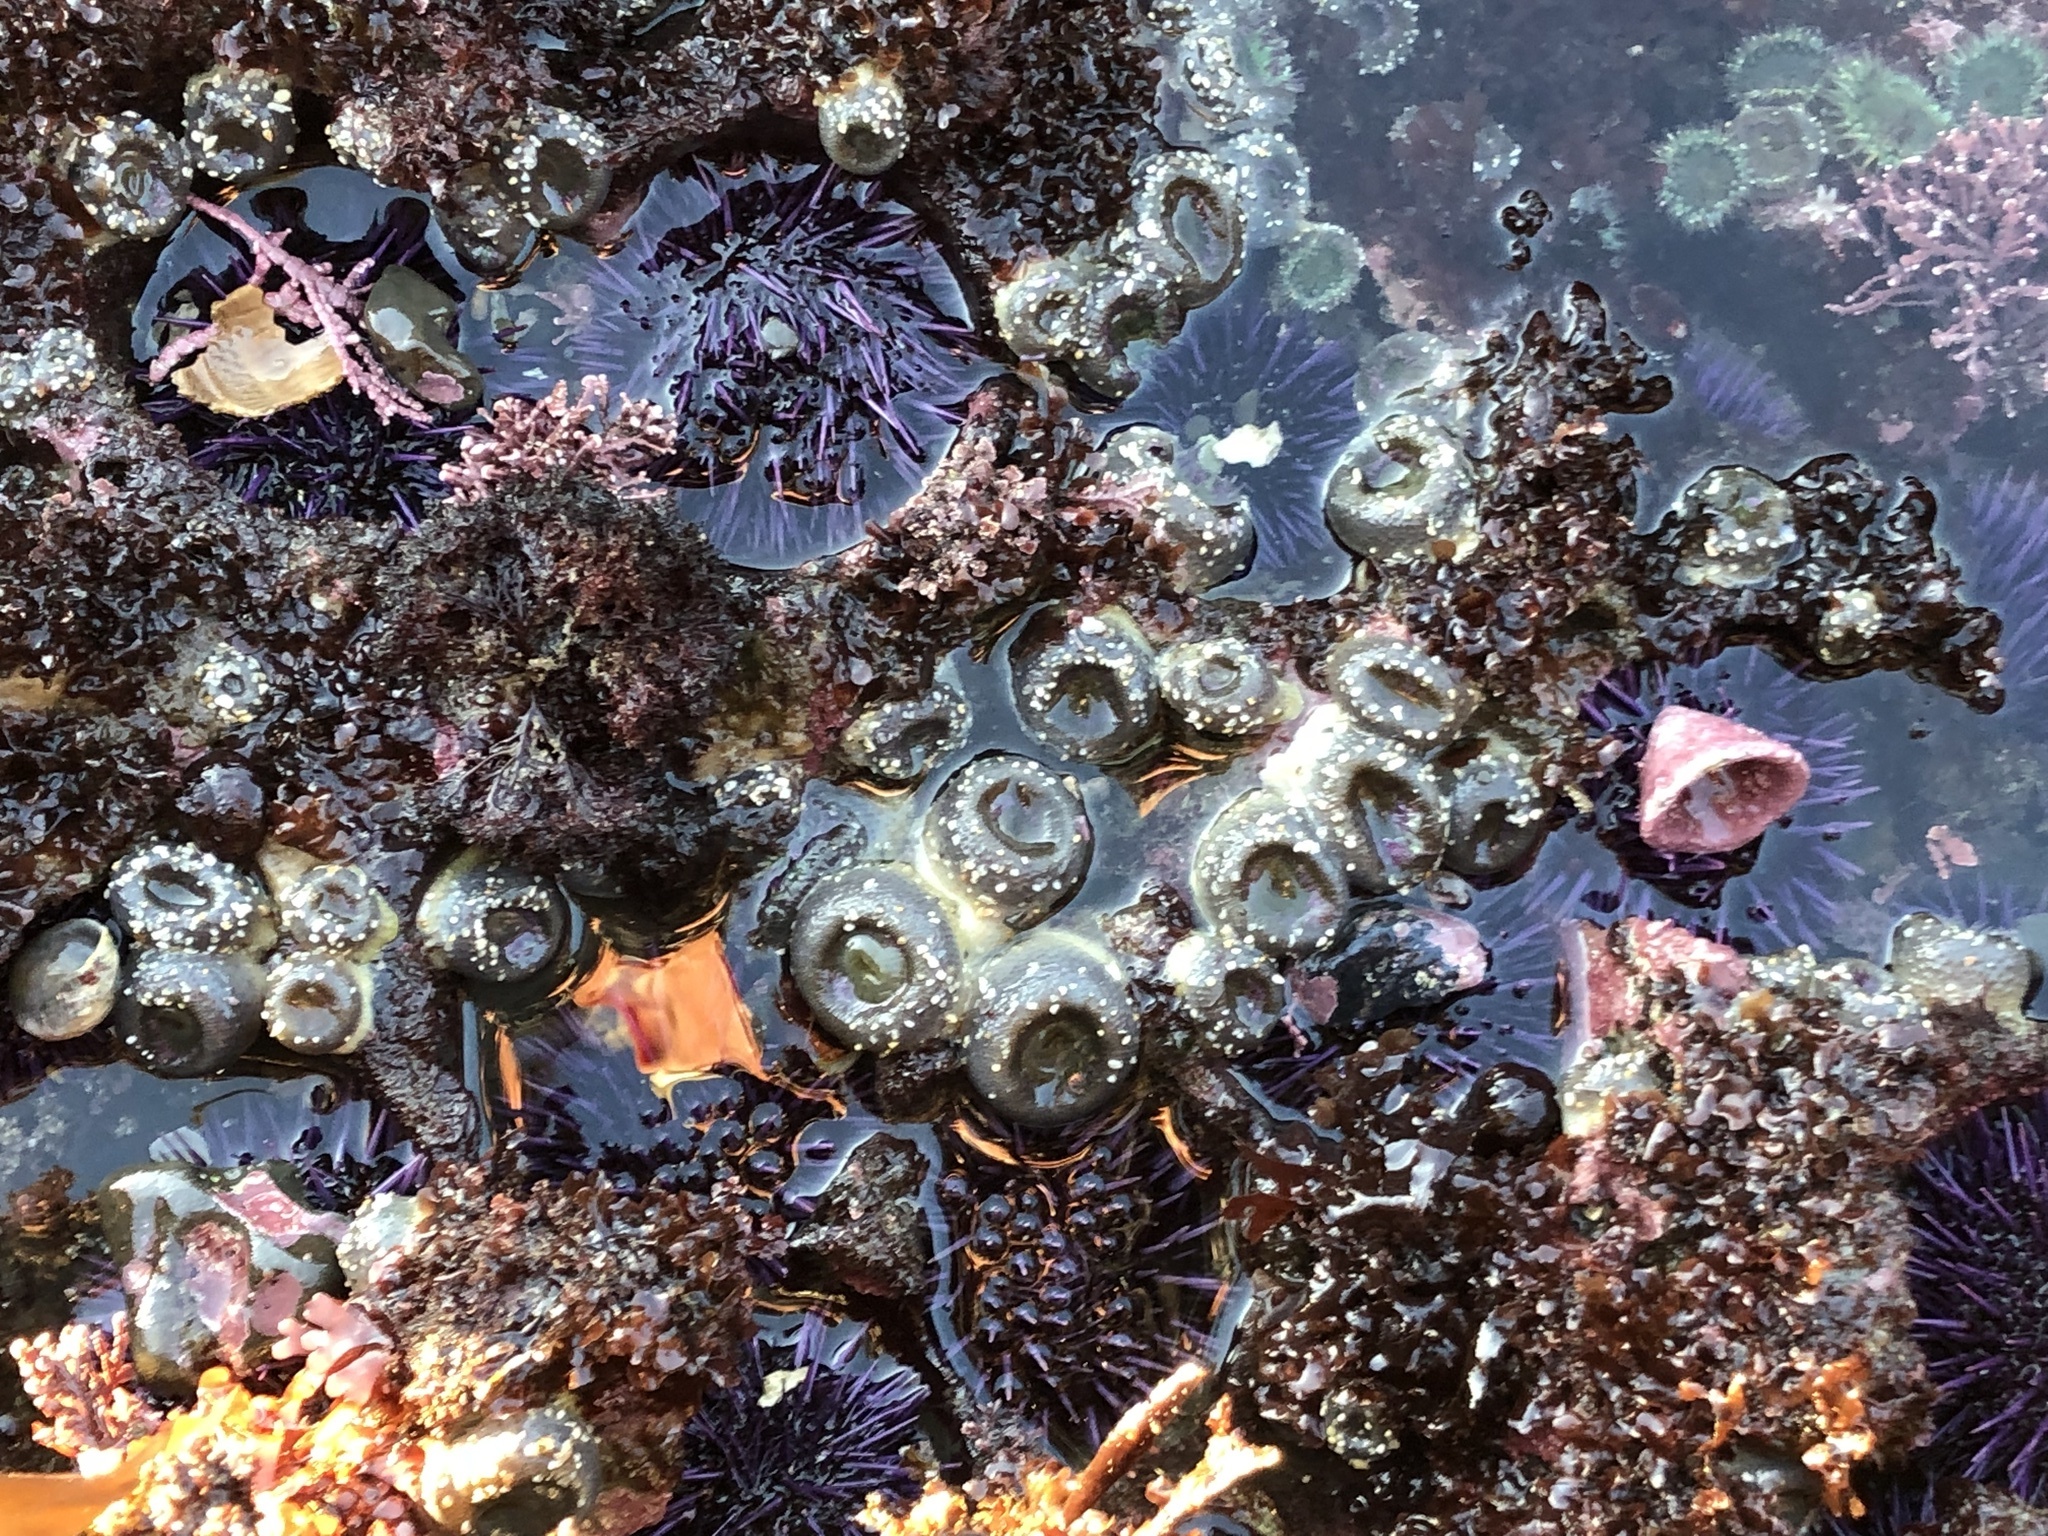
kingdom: Animalia
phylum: Cnidaria
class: Anthozoa
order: Actiniaria
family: Actiniidae
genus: Anthopleura
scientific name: Anthopleura elegantissima
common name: Clonal anemone
